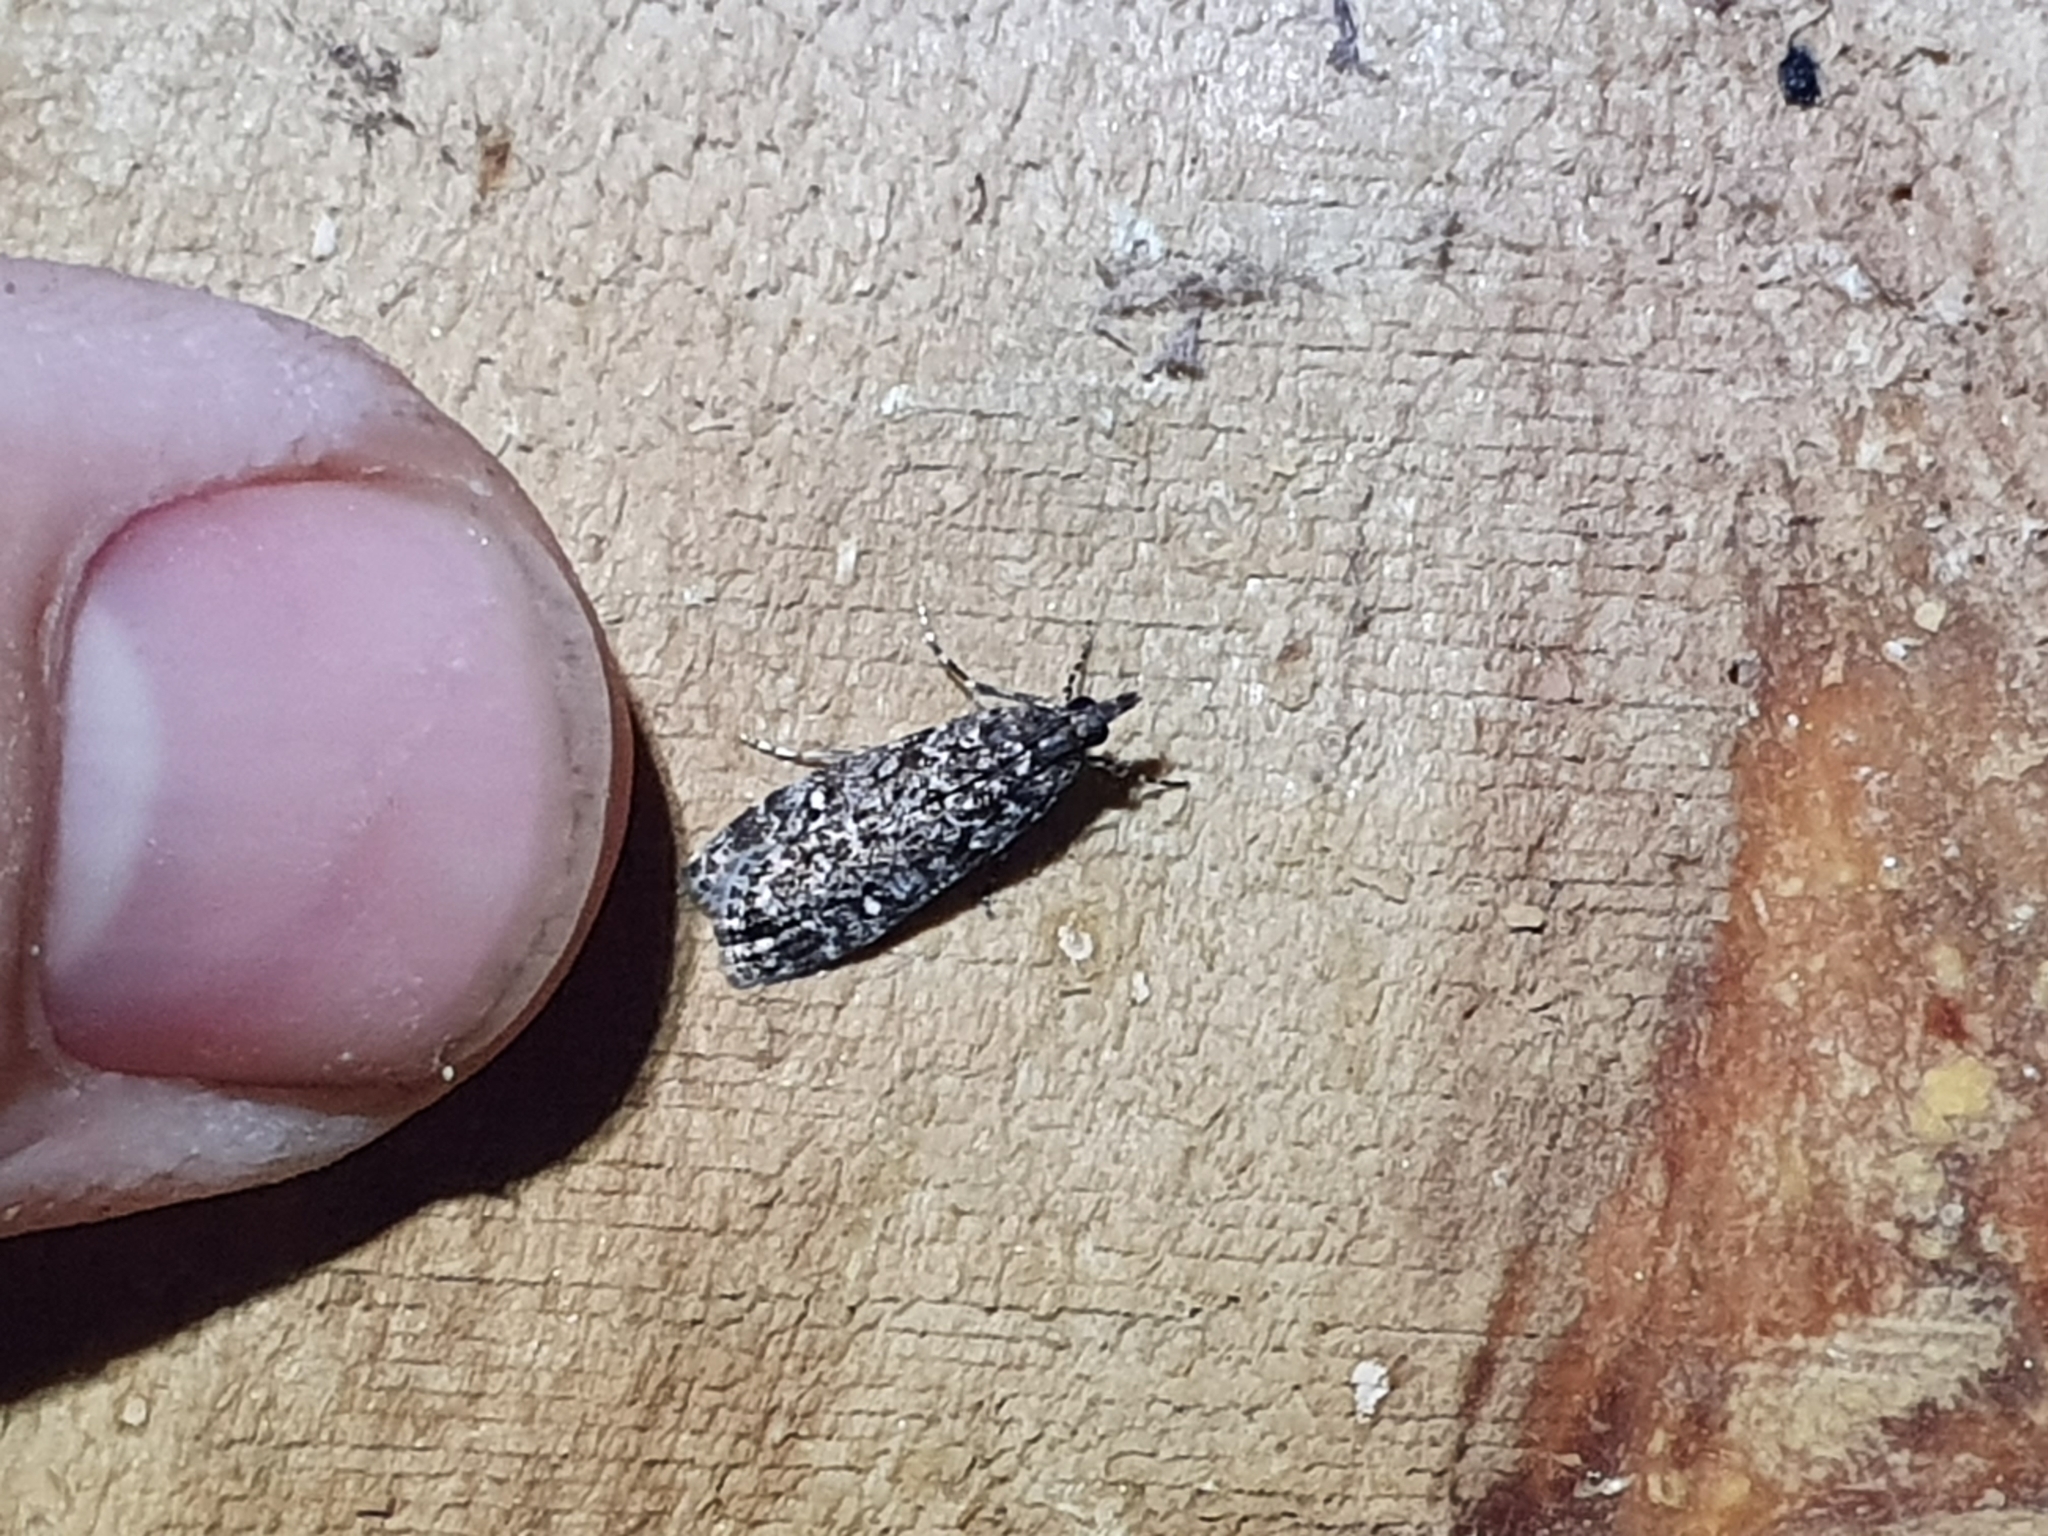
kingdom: Animalia
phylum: Arthropoda
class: Insecta
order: Lepidoptera
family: Crambidae
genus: Eudonia
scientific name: Eudonia philerga
